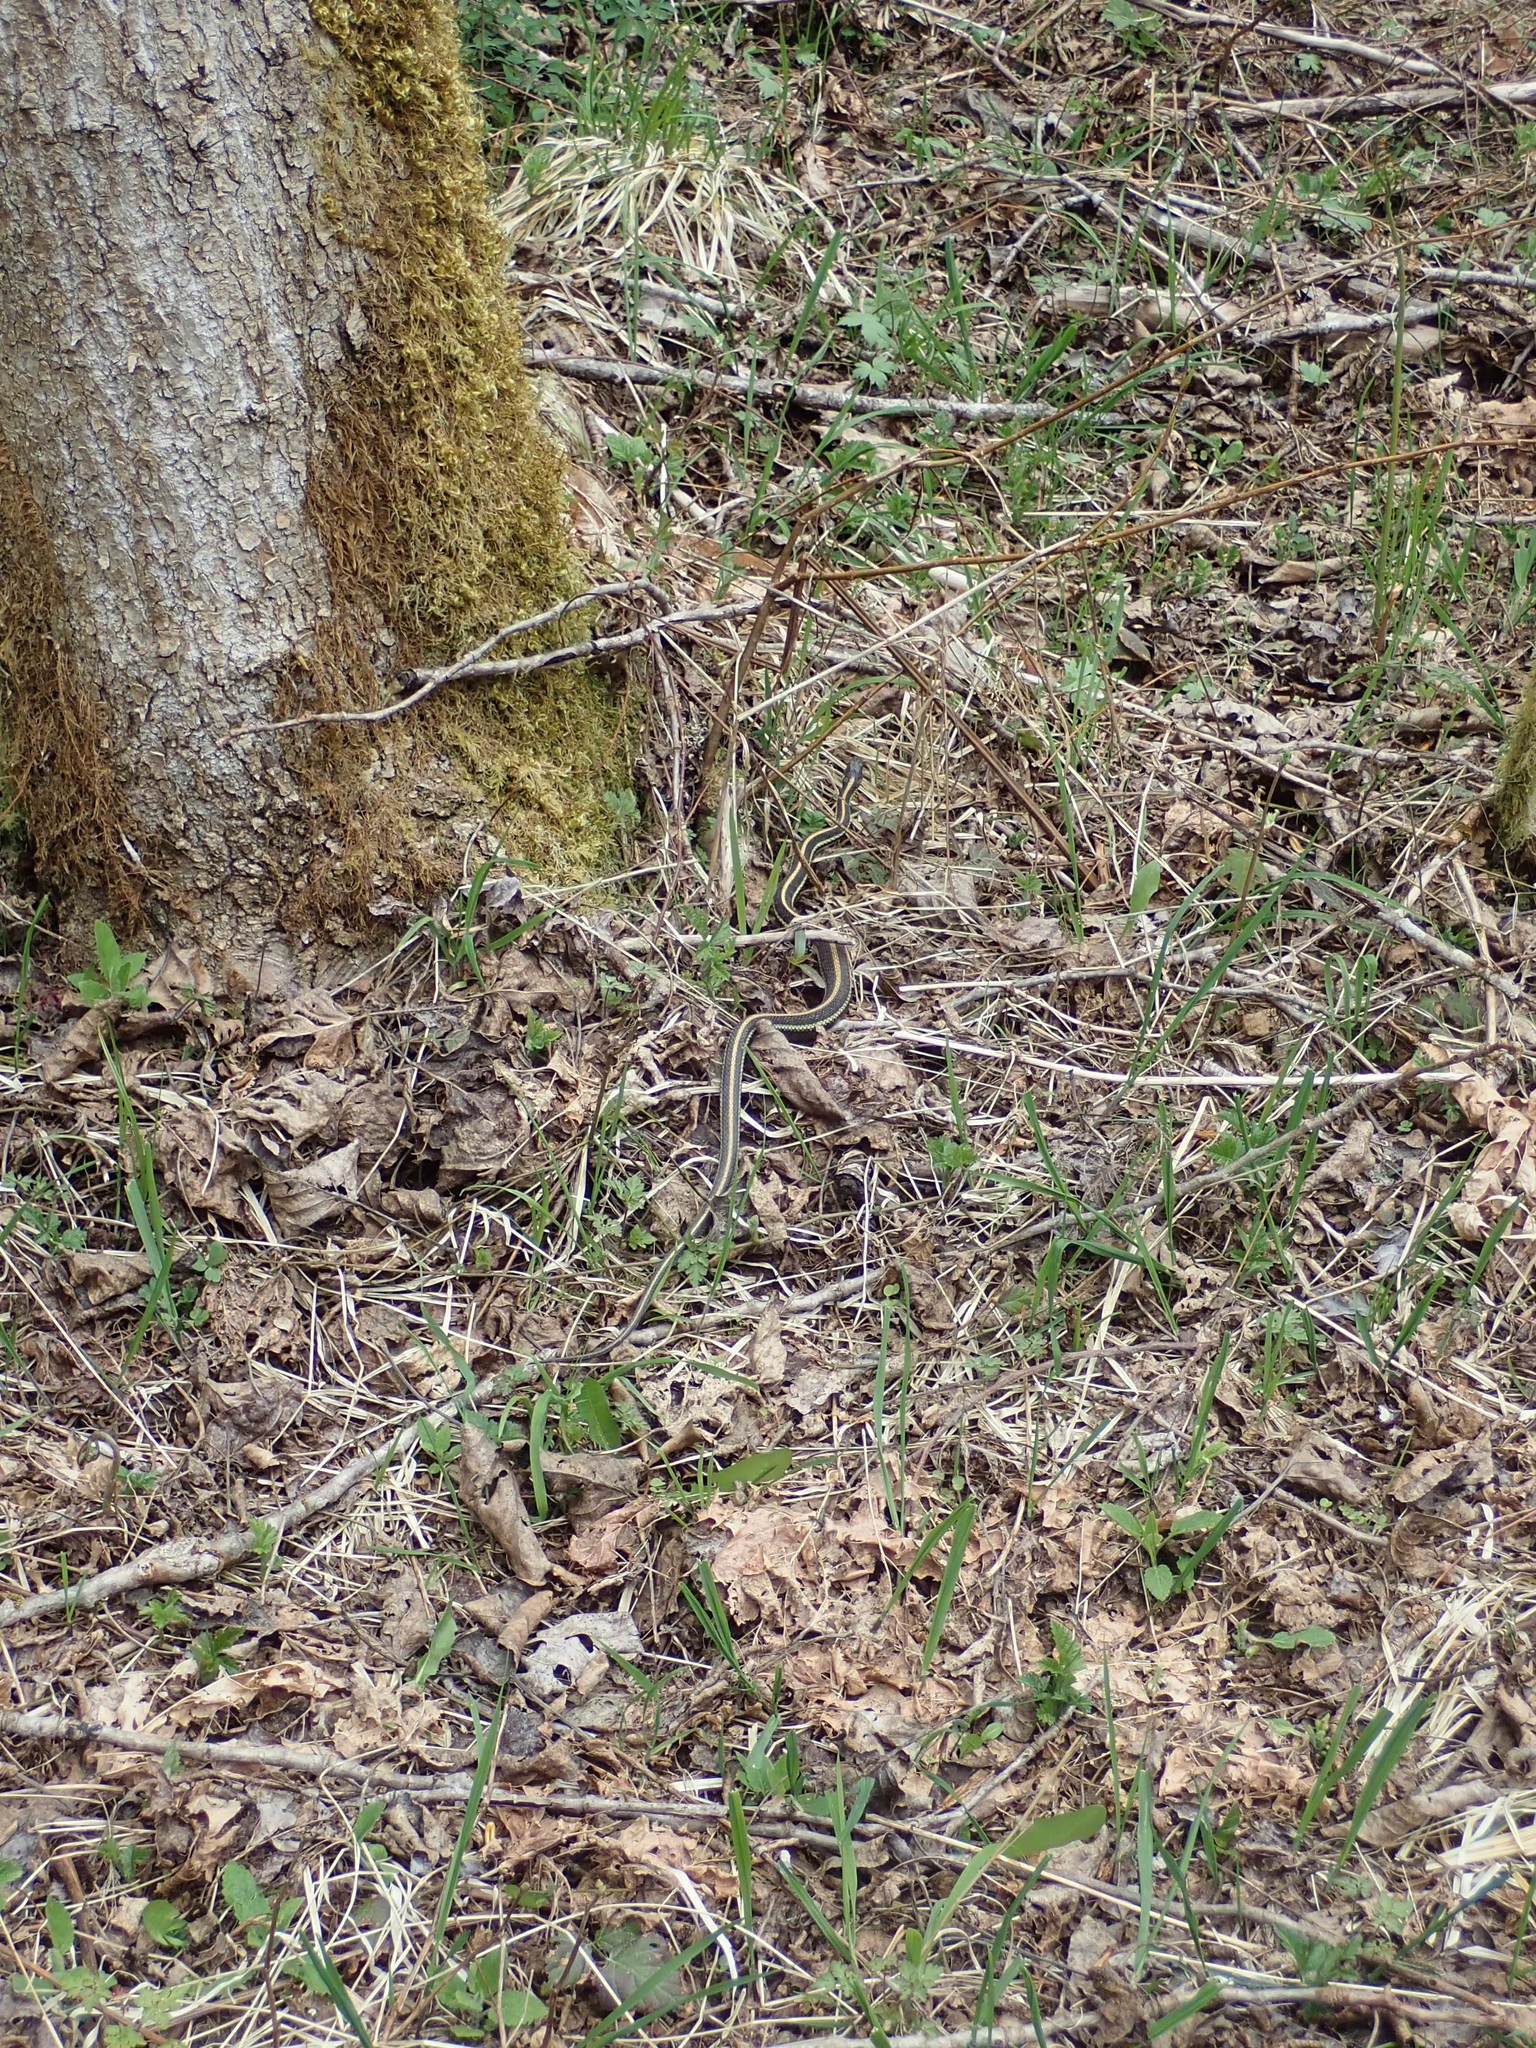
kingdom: Animalia
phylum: Chordata
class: Squamata
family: Colubridae
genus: Thamnophis
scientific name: Thamnophis sirtalis
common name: Common garter snake
